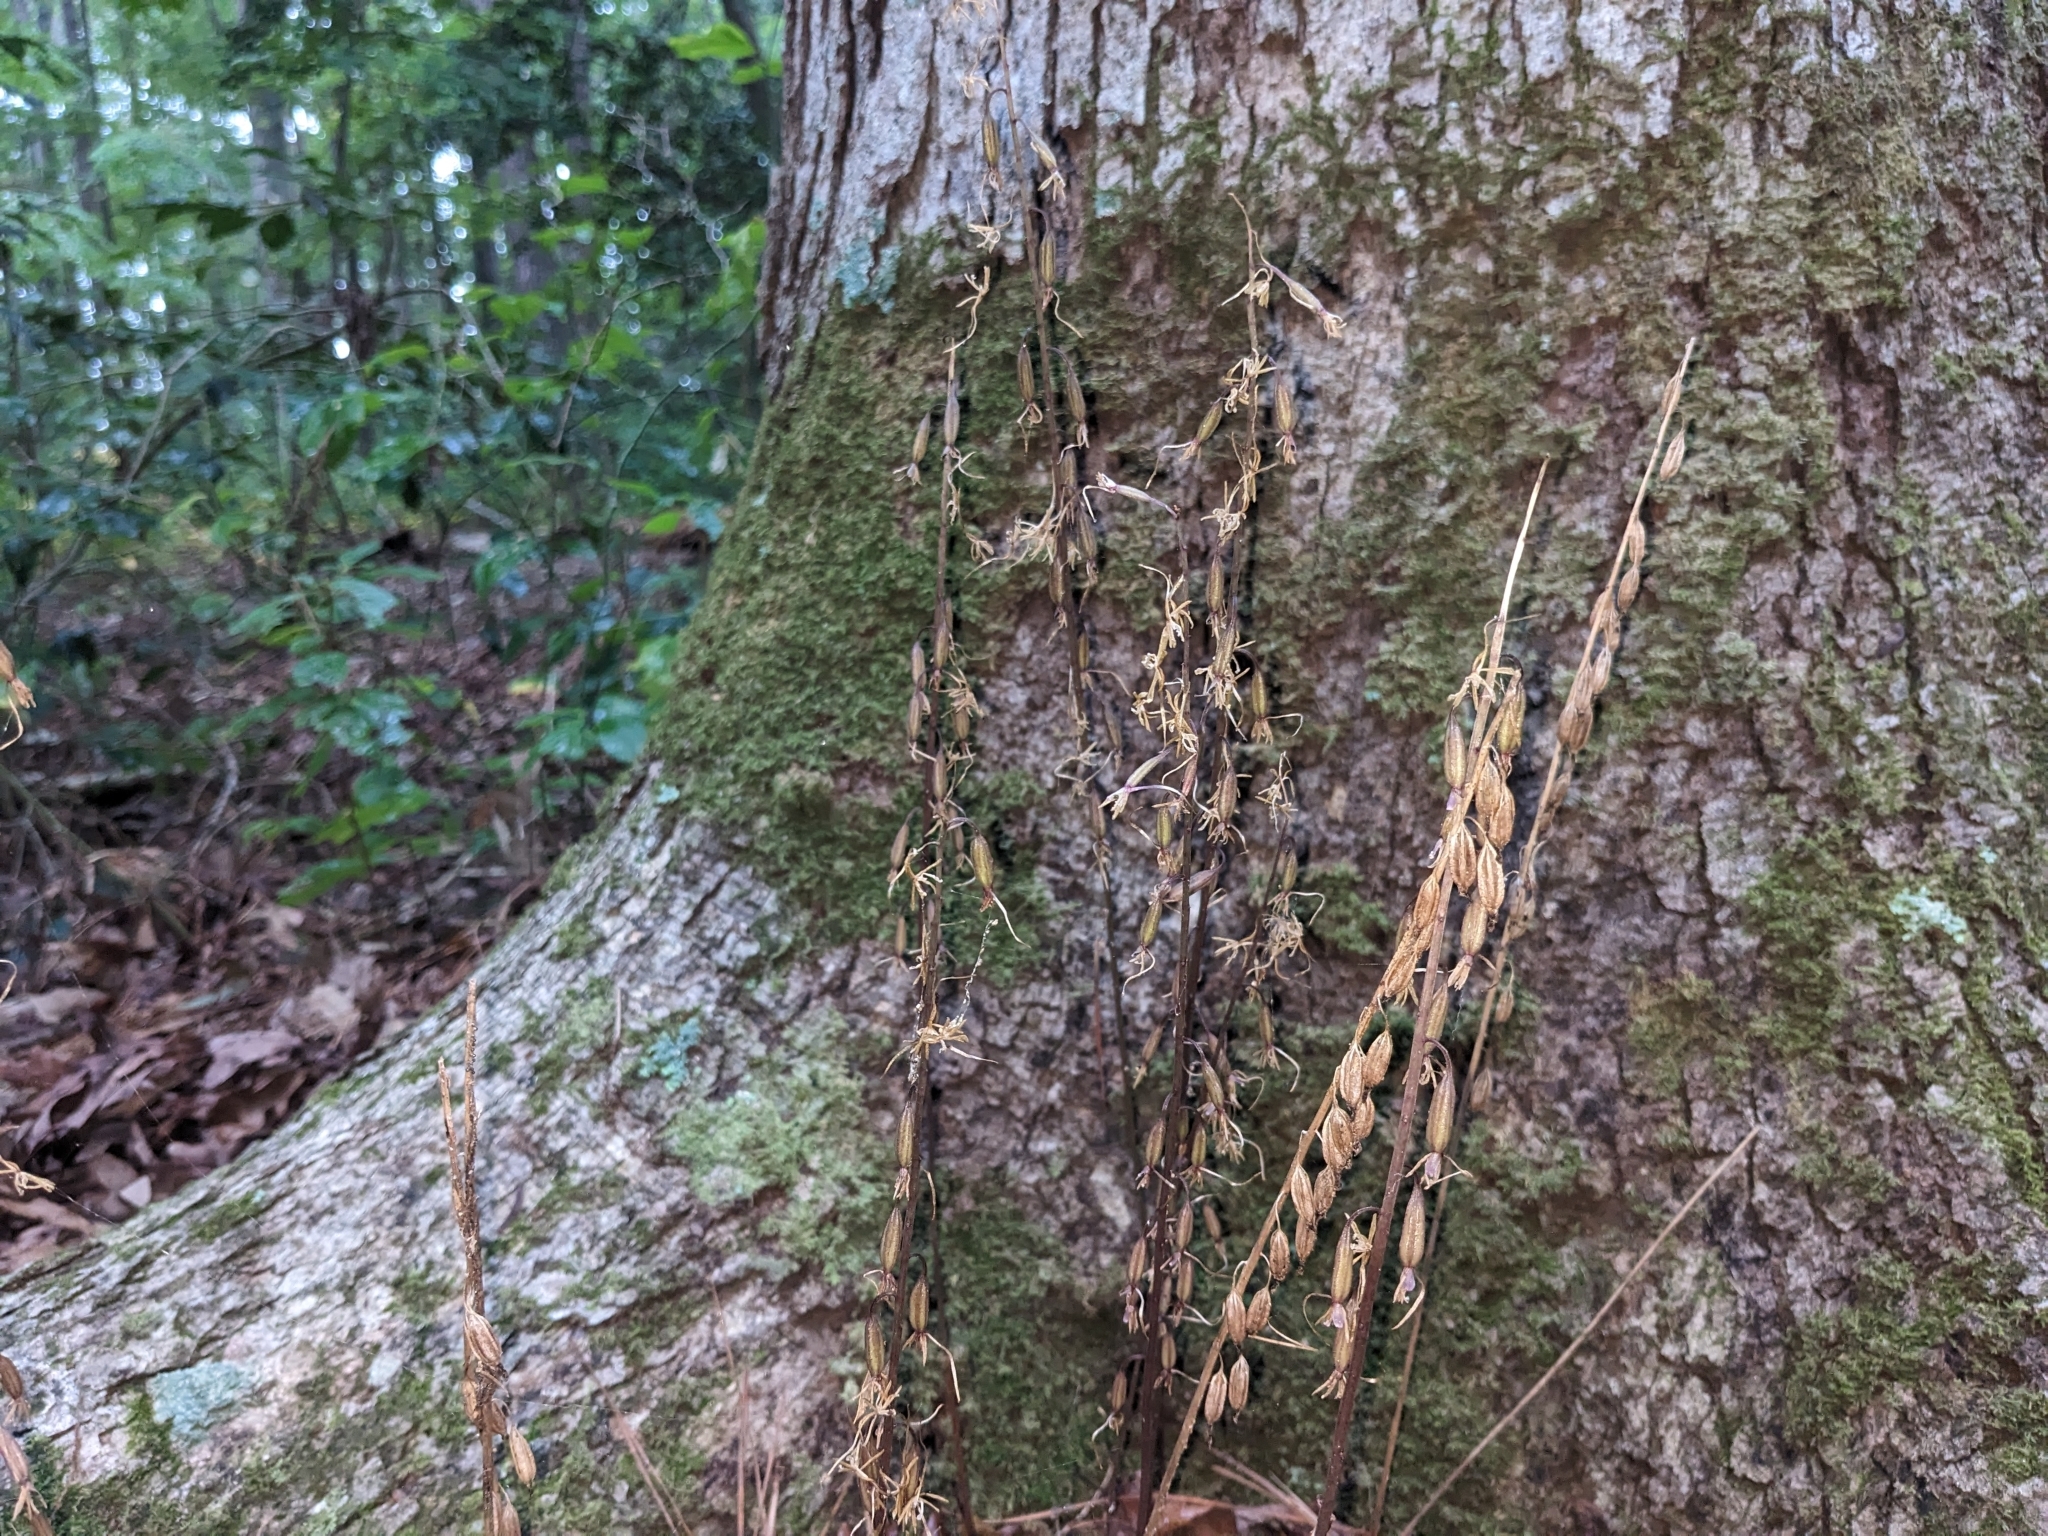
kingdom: Plantae
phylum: Tracheophyta
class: Liliopsida
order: Asparagales
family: Orchidaceae
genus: Tipularia
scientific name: Tipularia discolor
